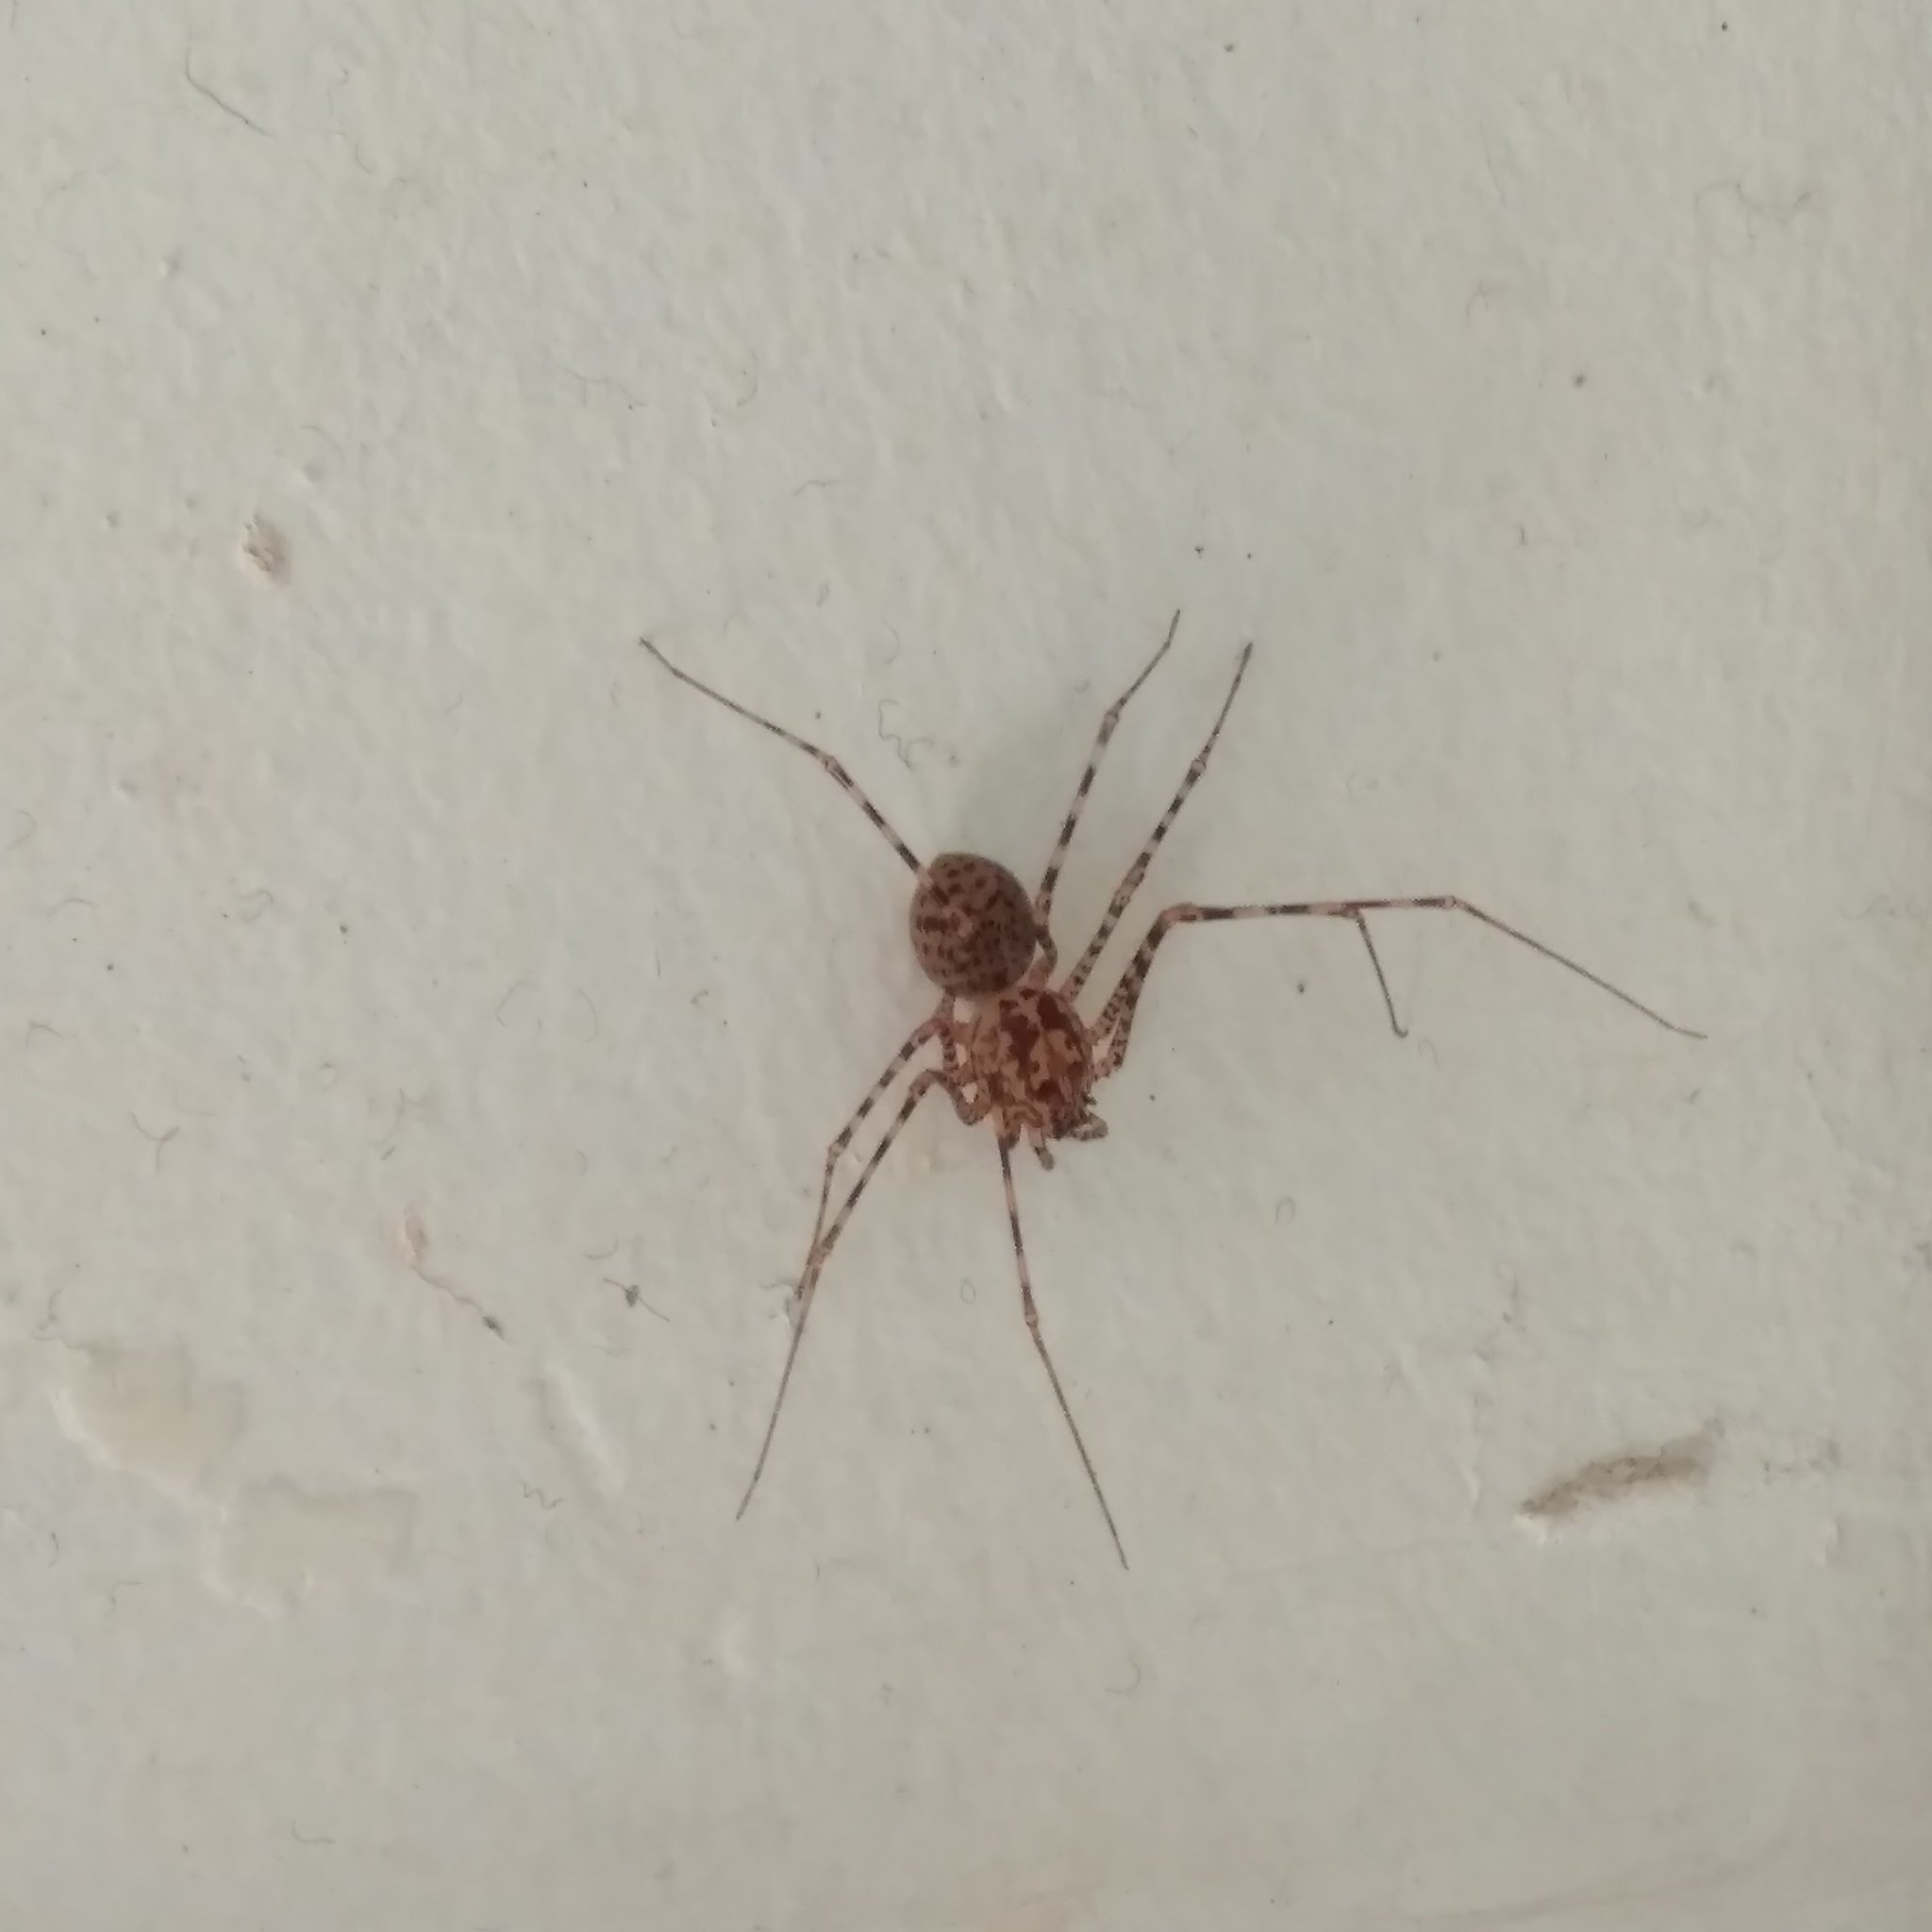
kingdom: Animalia
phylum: Arthropoda
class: Arachnida
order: Araneae
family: Scytodidae
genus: Scytodes
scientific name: Scytodes globula
